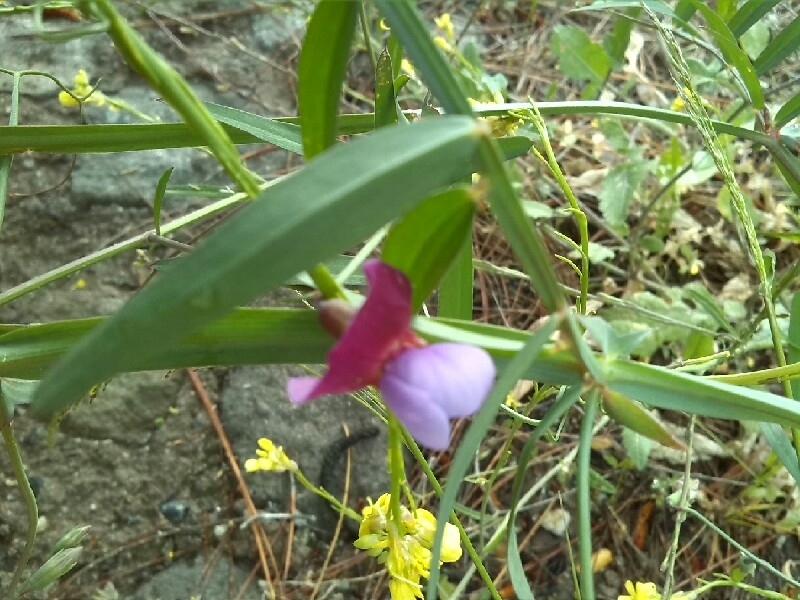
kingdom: Plantae
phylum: Tracheophyta
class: Magnoliopsida
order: Fabales
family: Fabaceae
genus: Lathyrus
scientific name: Lathyrus clymenum
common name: Spanish vetchling
